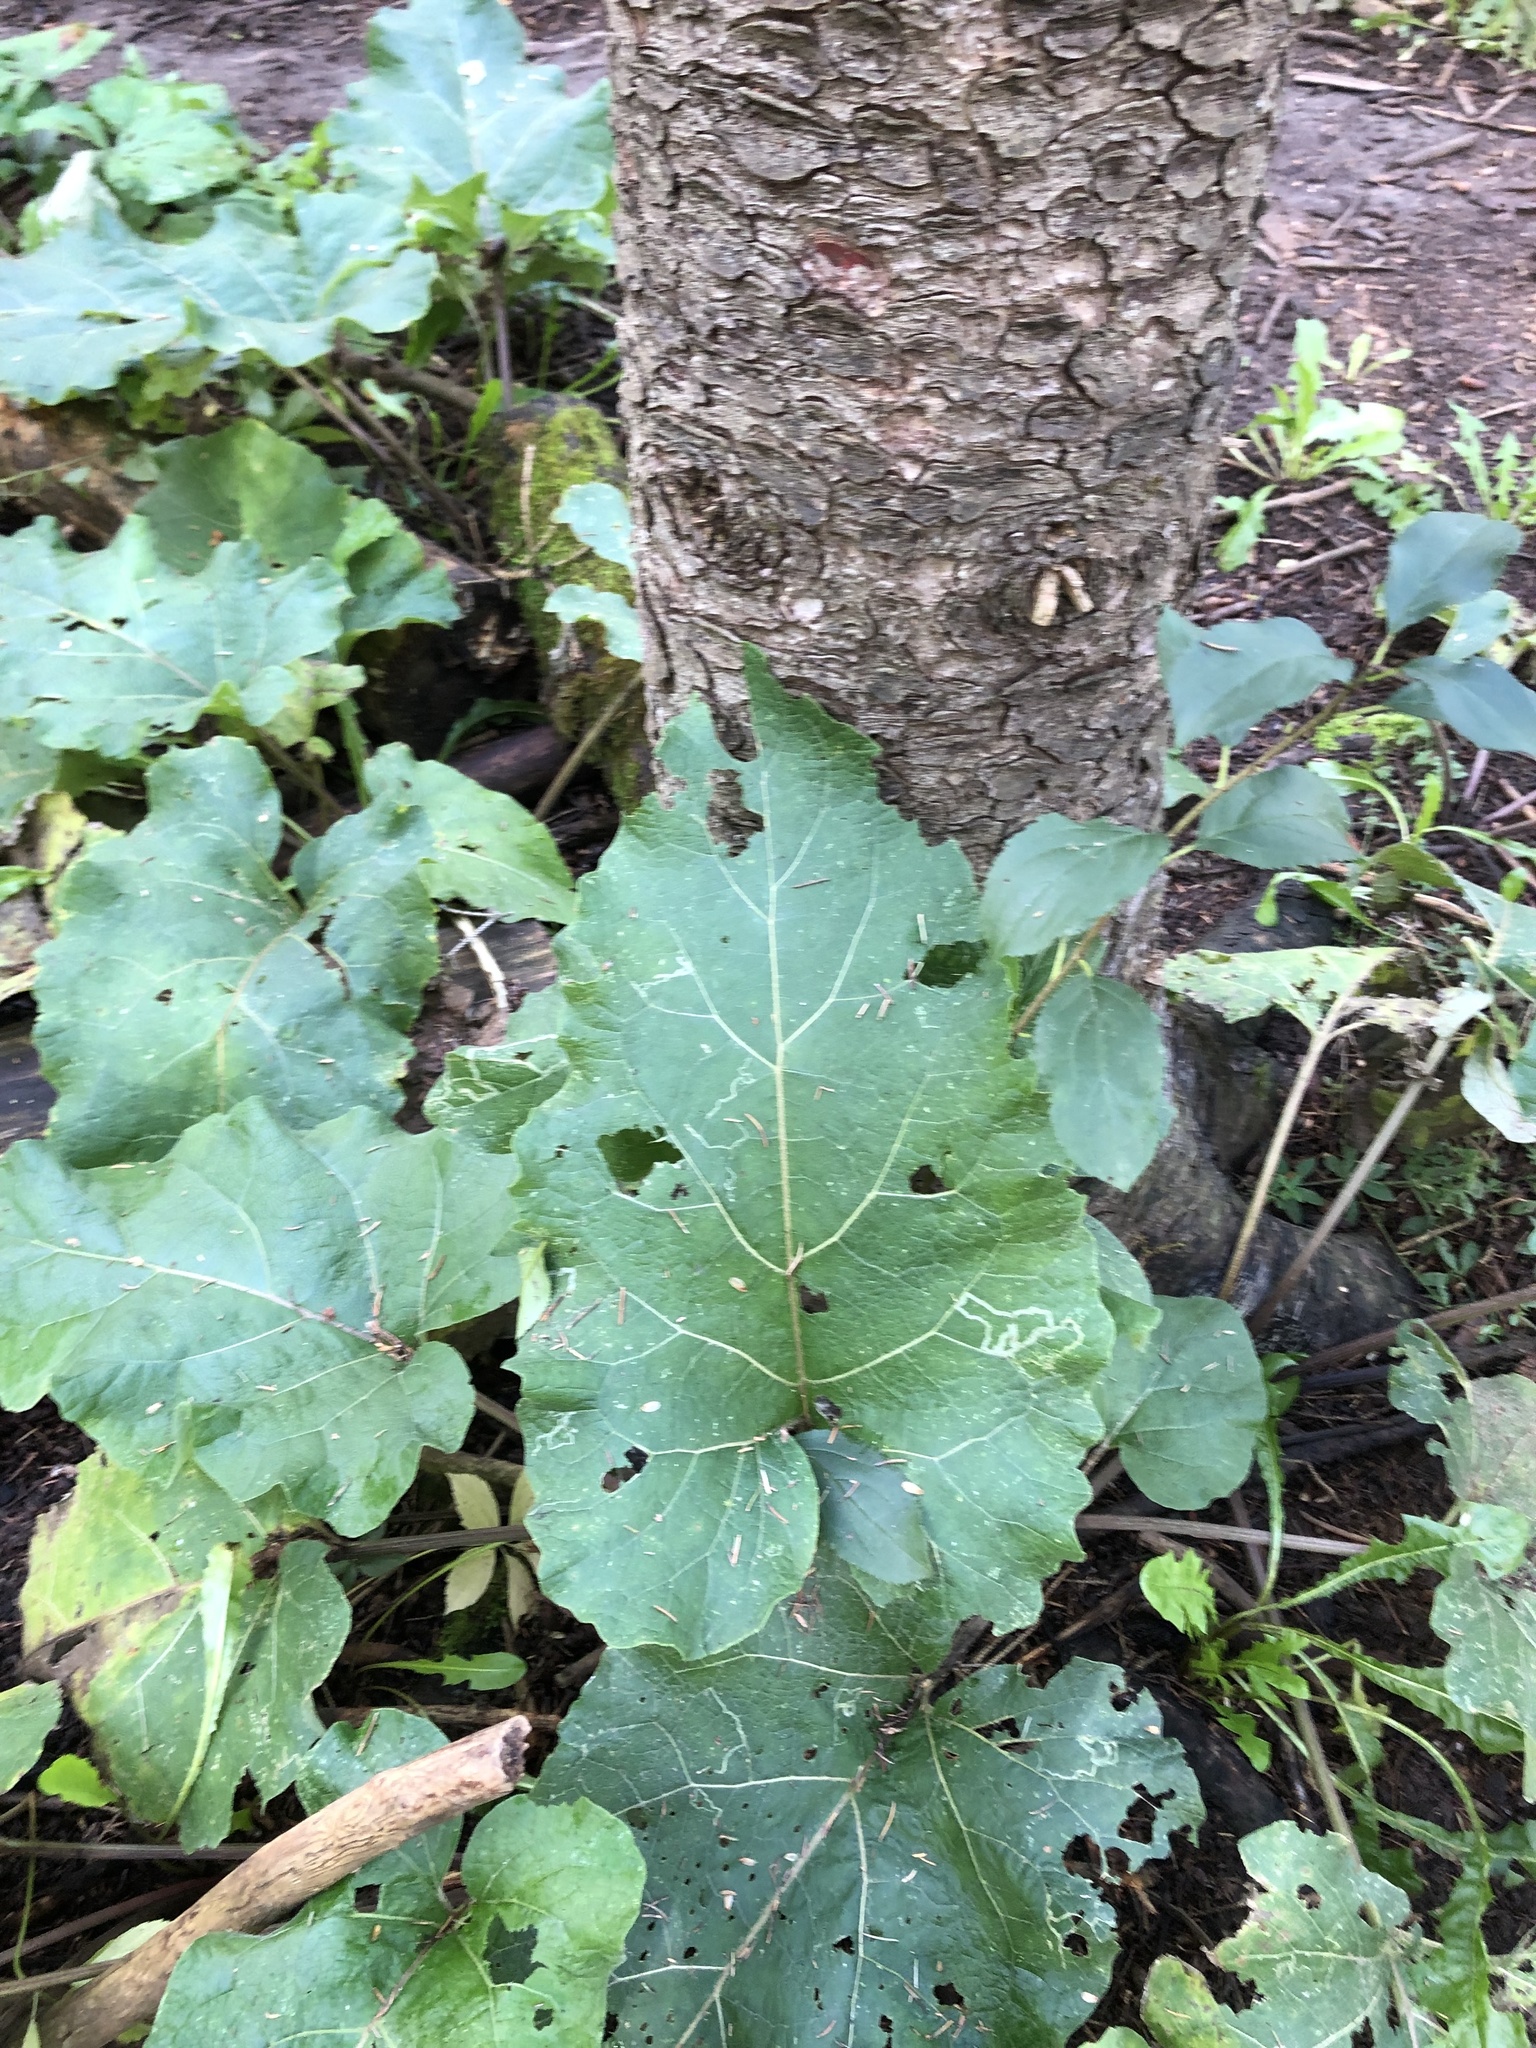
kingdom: Plantae
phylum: Tracheophyta
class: Magnoliopsida
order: Asterales
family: Asteraceae
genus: Arctium
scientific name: Arctium
